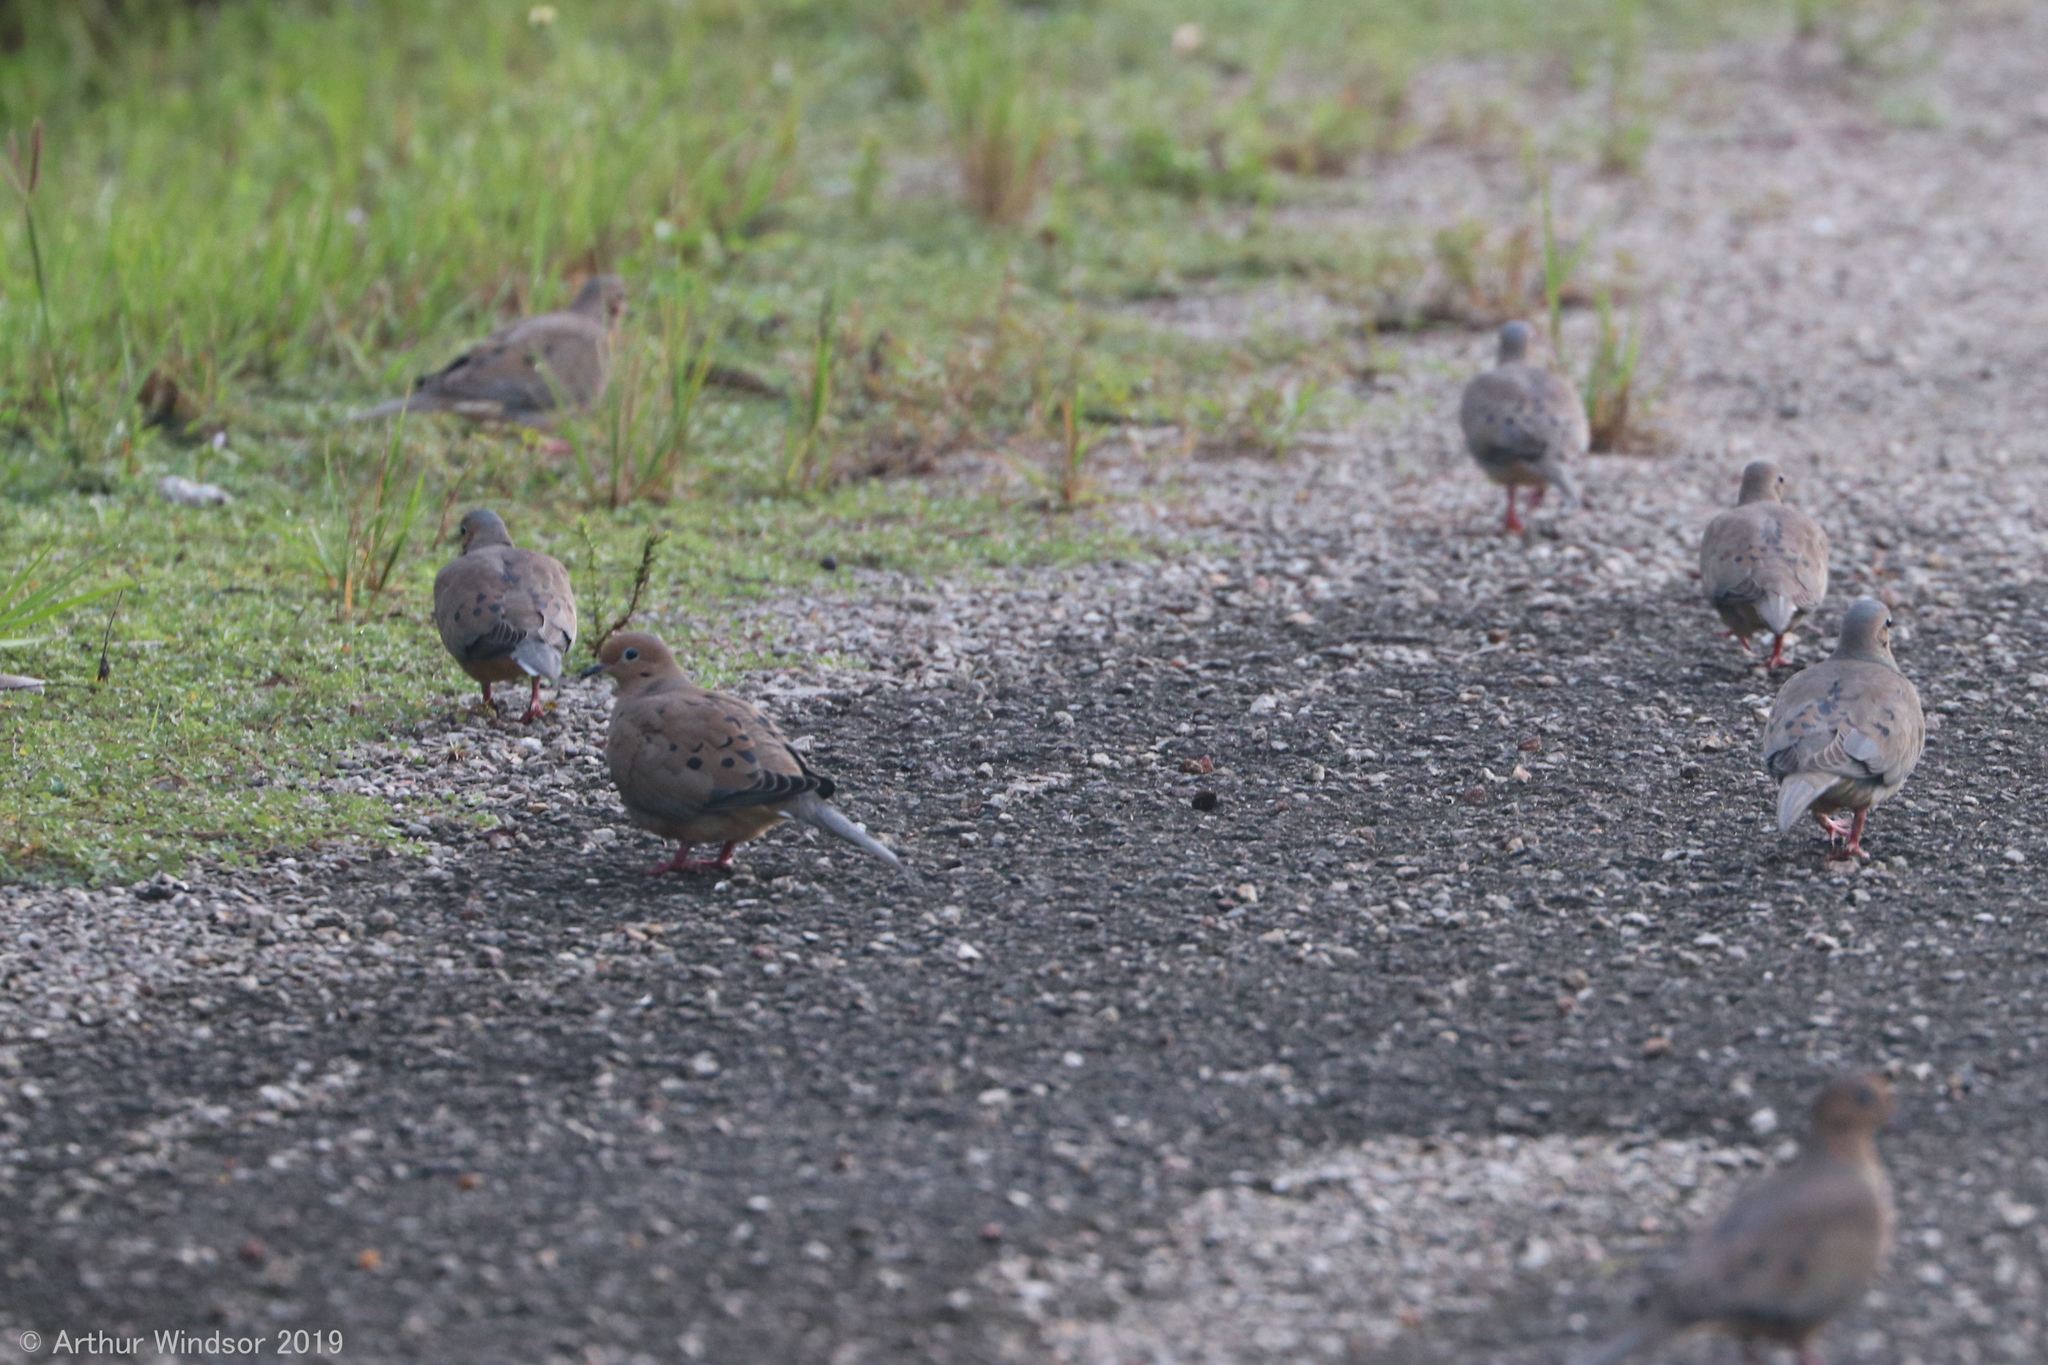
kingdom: Animalia
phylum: Chordata
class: Aves
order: Columbiformes
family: Columbidae
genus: Zenaida
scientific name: Zenaida macroura
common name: Mourning dove
